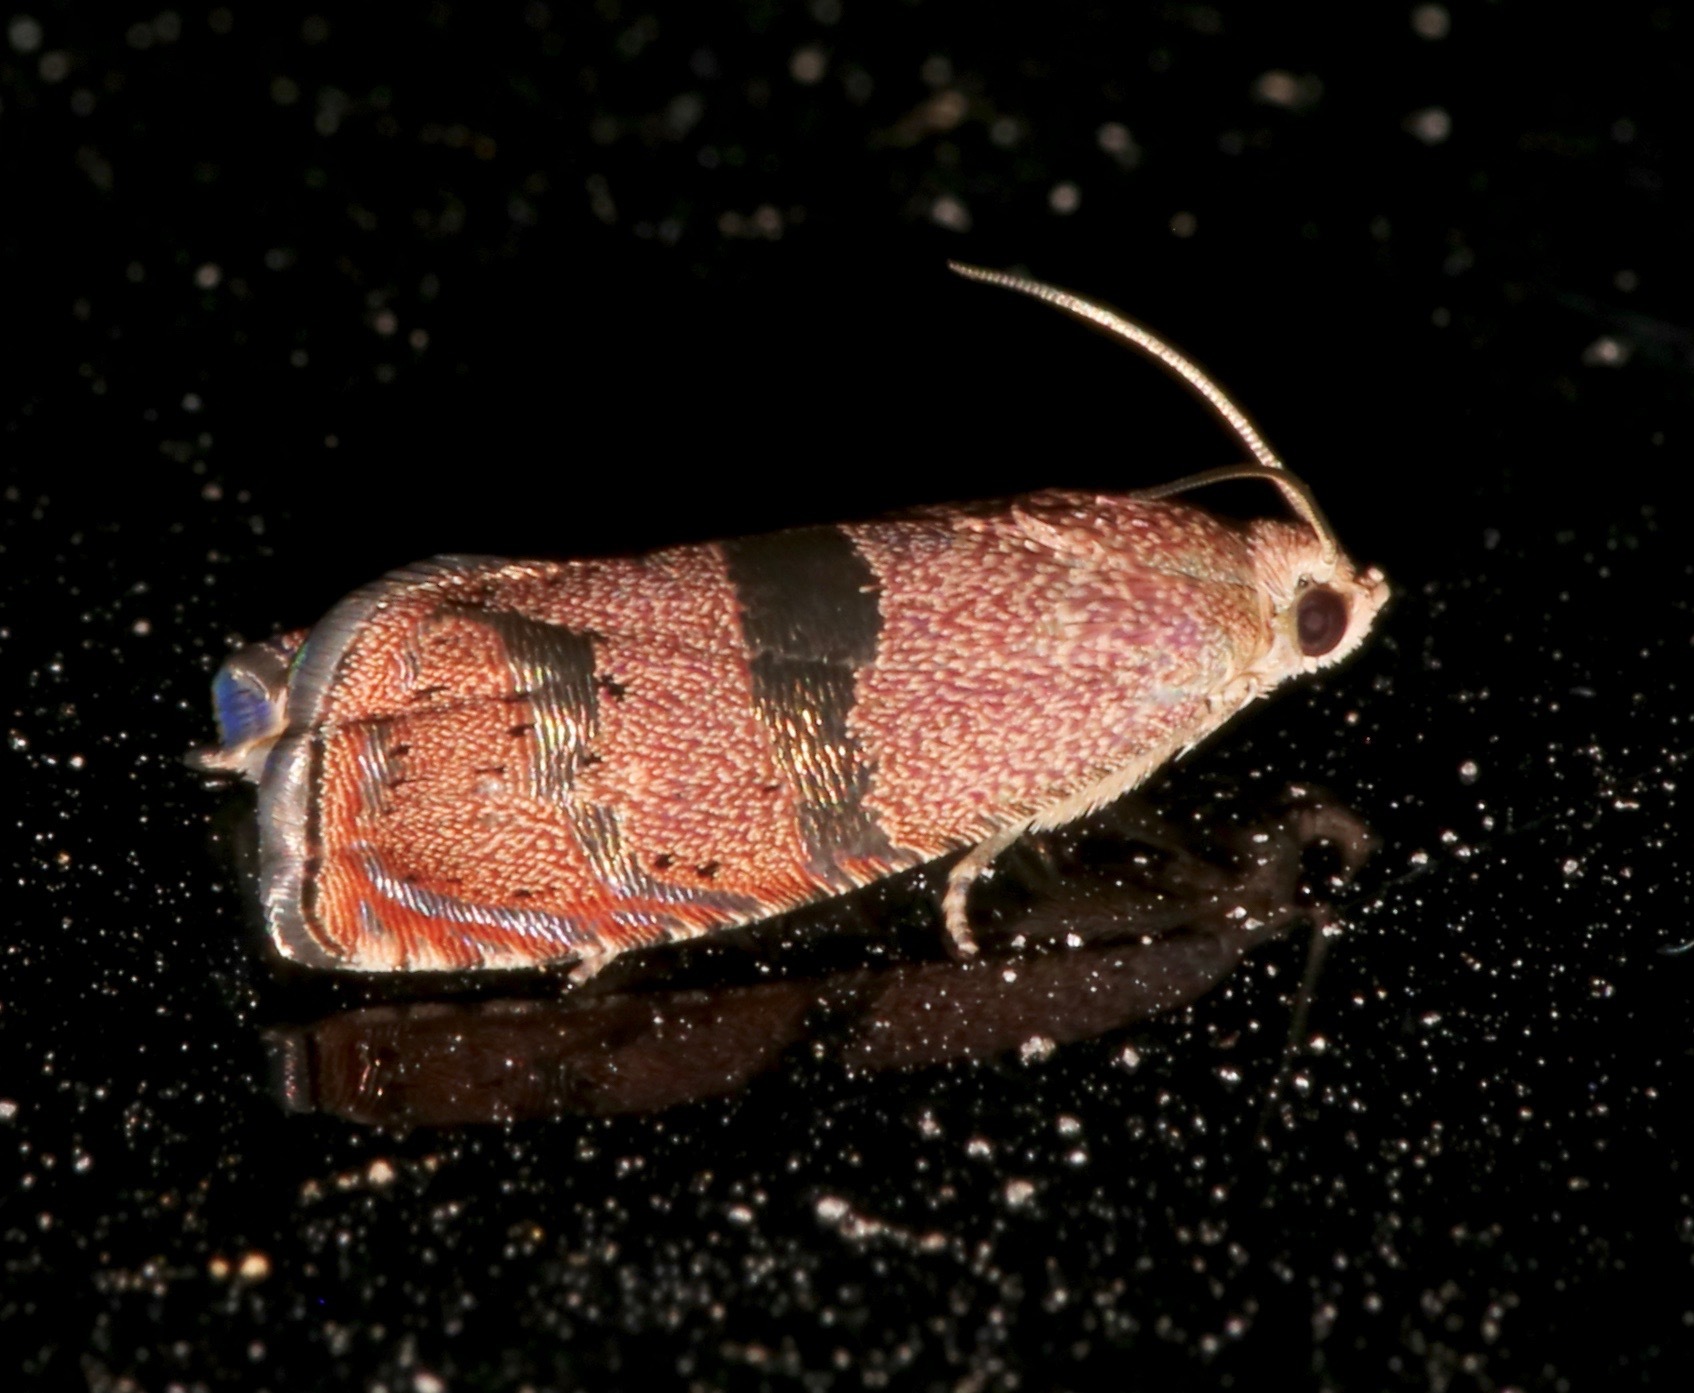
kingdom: Animalia
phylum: Arthropoda
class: Insecta
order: Lepidoptera
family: Tortricidae
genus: Cydia
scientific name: Cydia latiferreana
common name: Filbertworm moth
